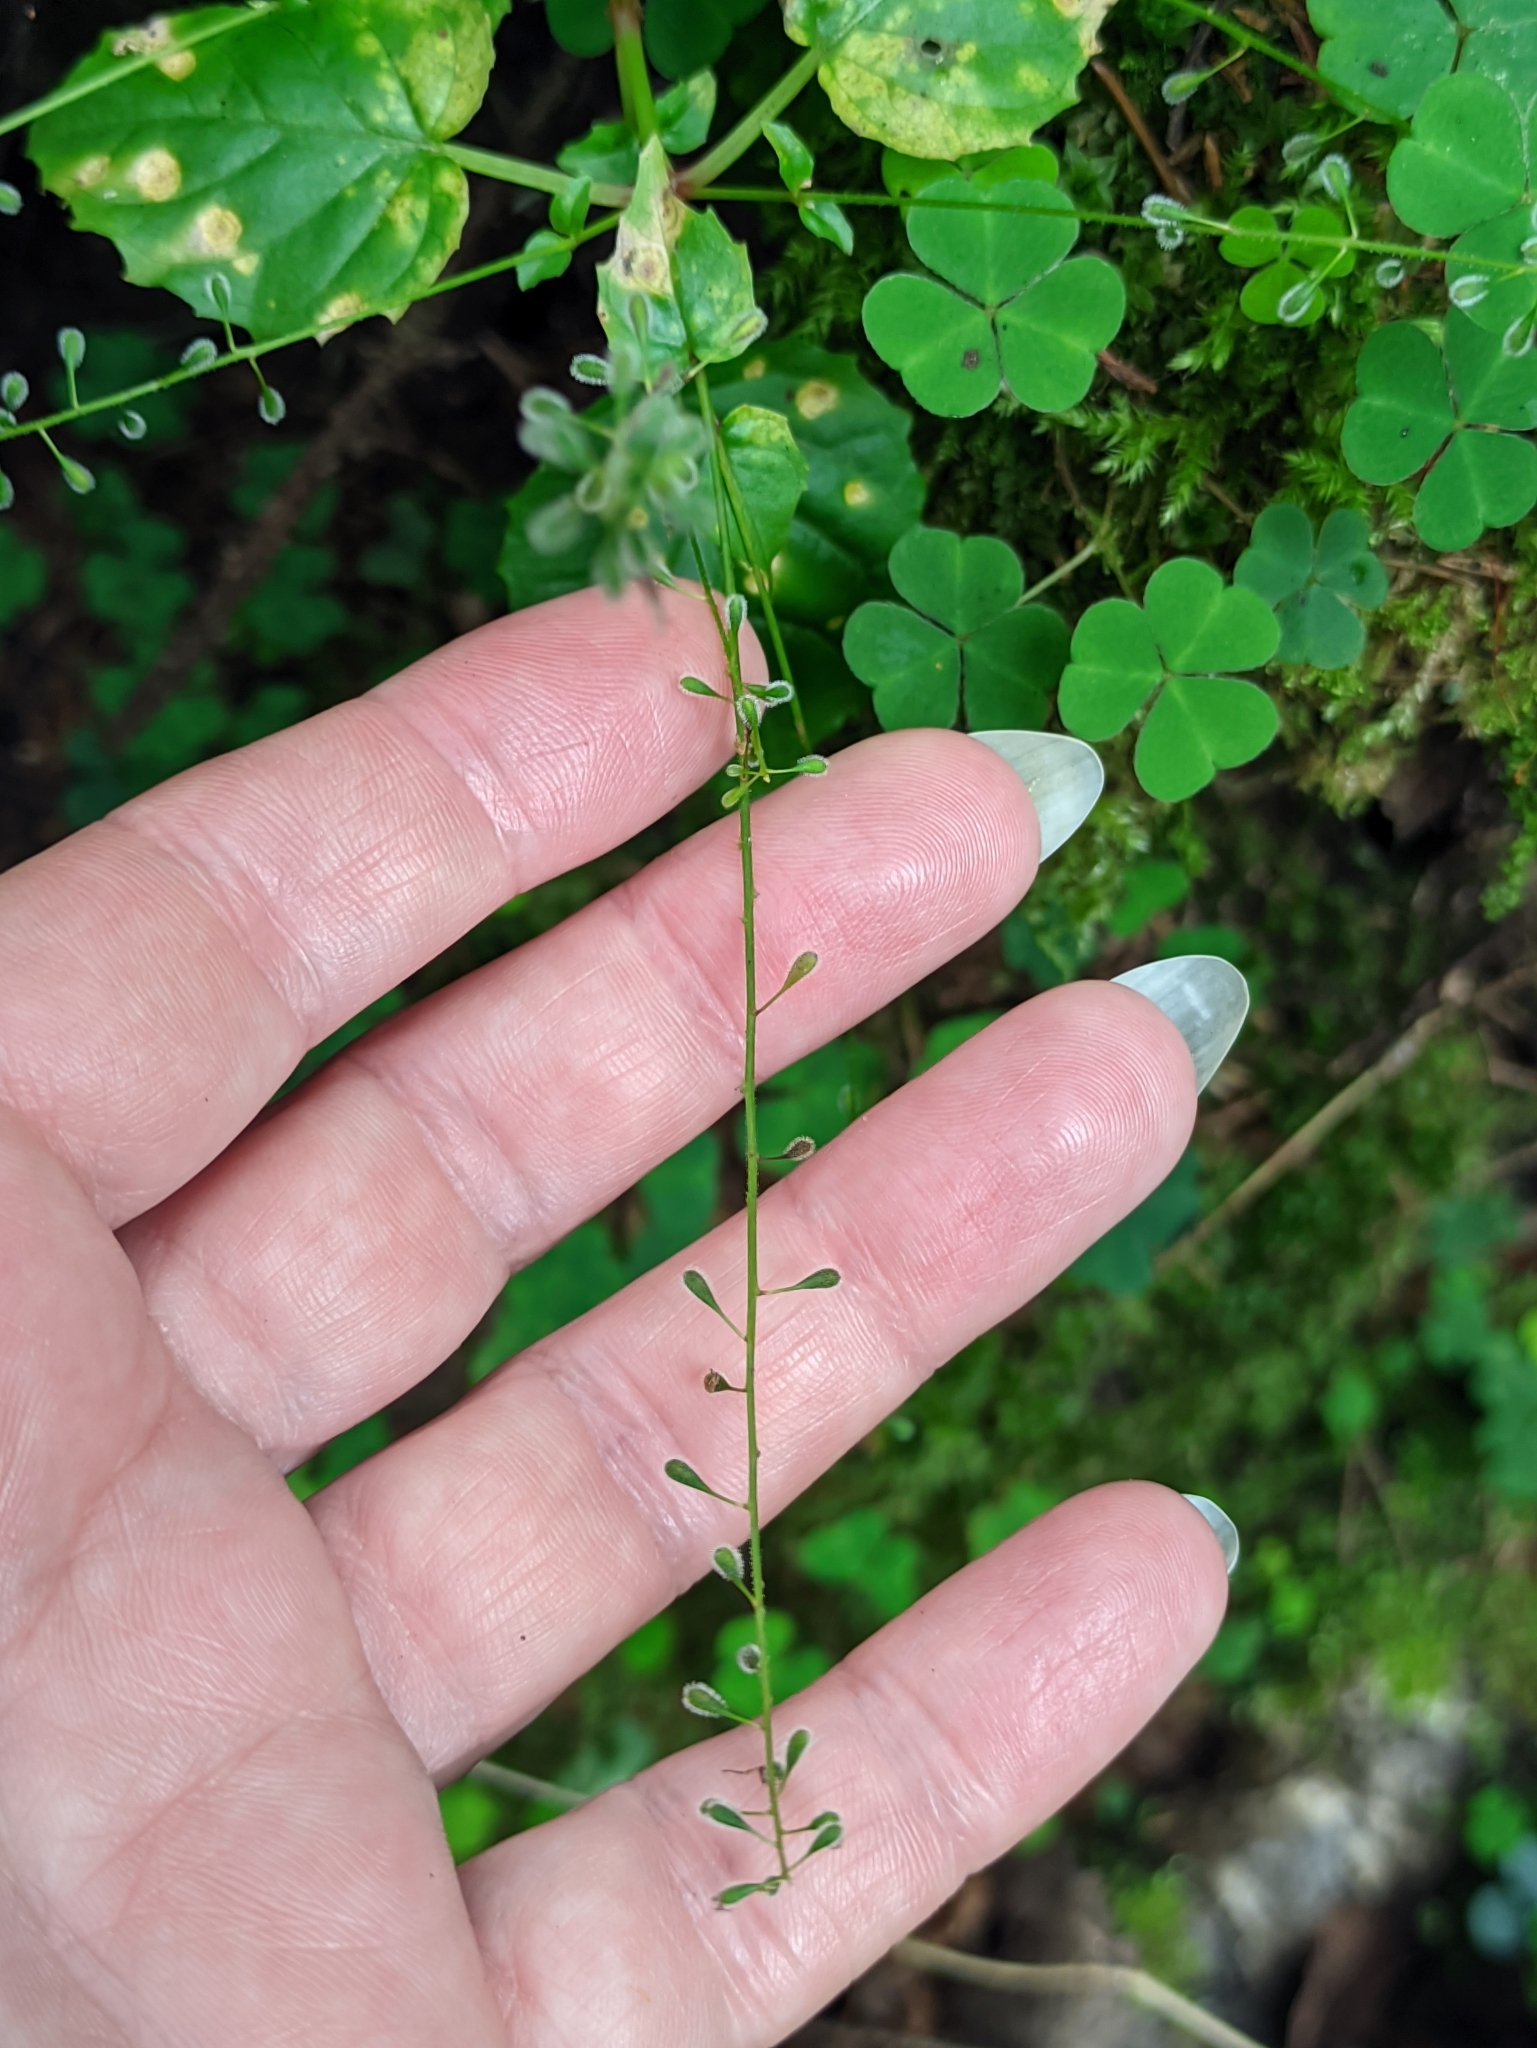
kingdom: Plantae
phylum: Tracheophyta
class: Magnoliopsida
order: Myrtales
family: Onagraceae
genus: Circaea
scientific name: Circaea alpina
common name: Alpine enchanter's-nightshade
